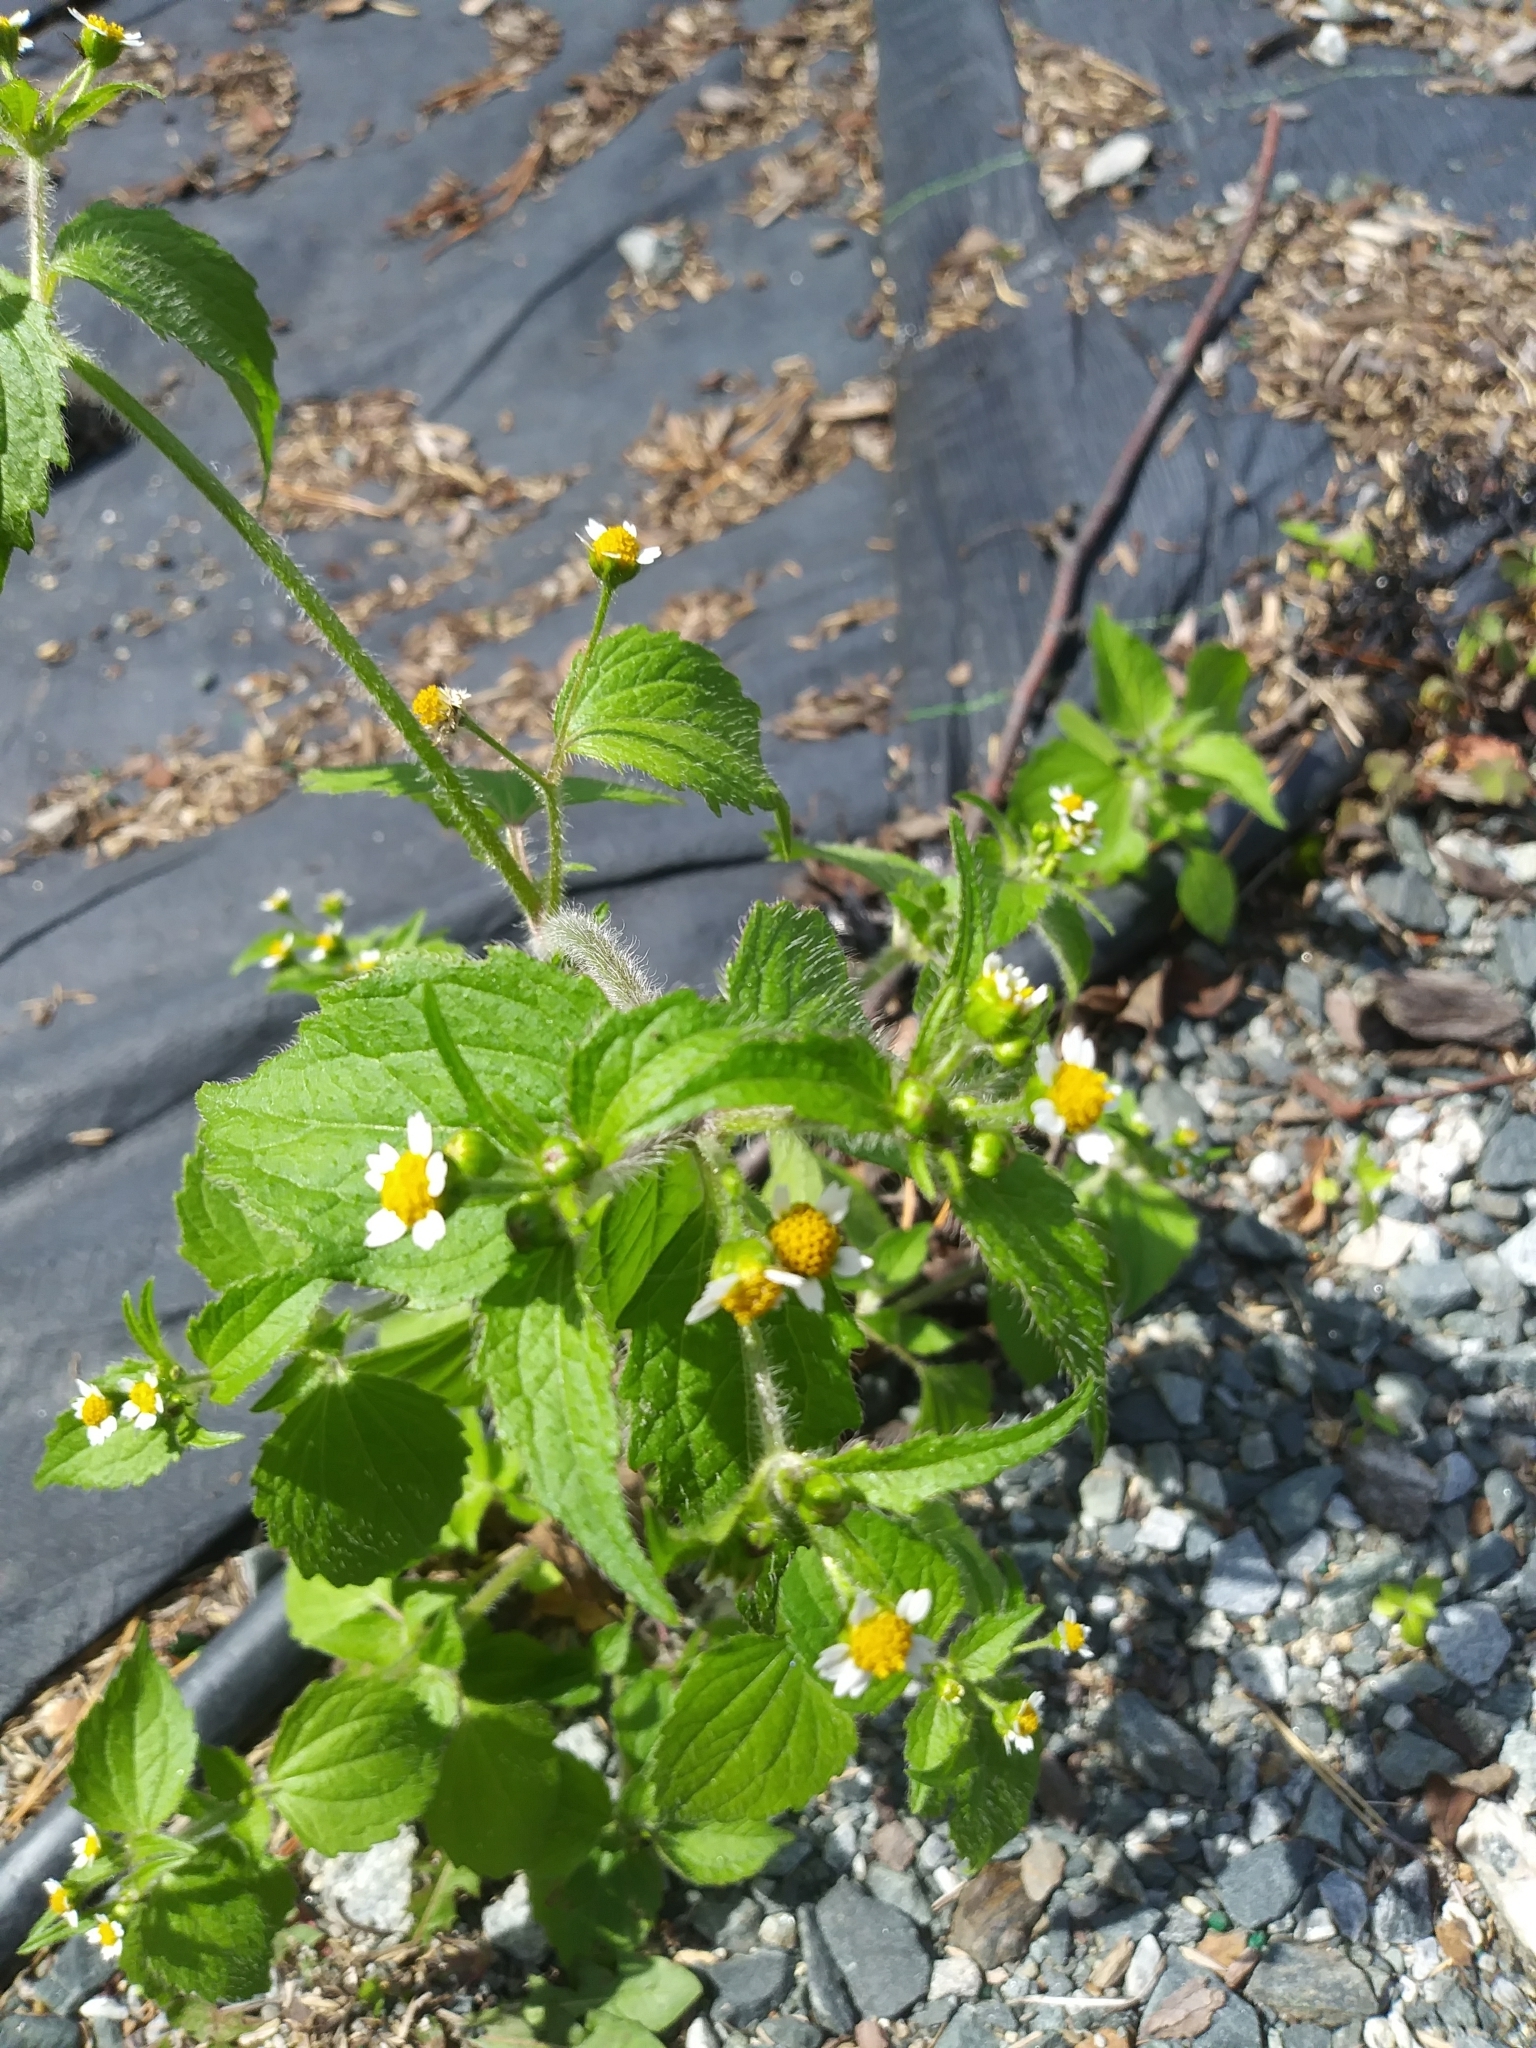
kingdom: Plantae
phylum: Tracheophyta
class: Magnoliopsida
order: Asterales
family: Asteraceae
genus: Galinsoga
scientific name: Galinsoga quadriradiata
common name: Shaggy soldier
